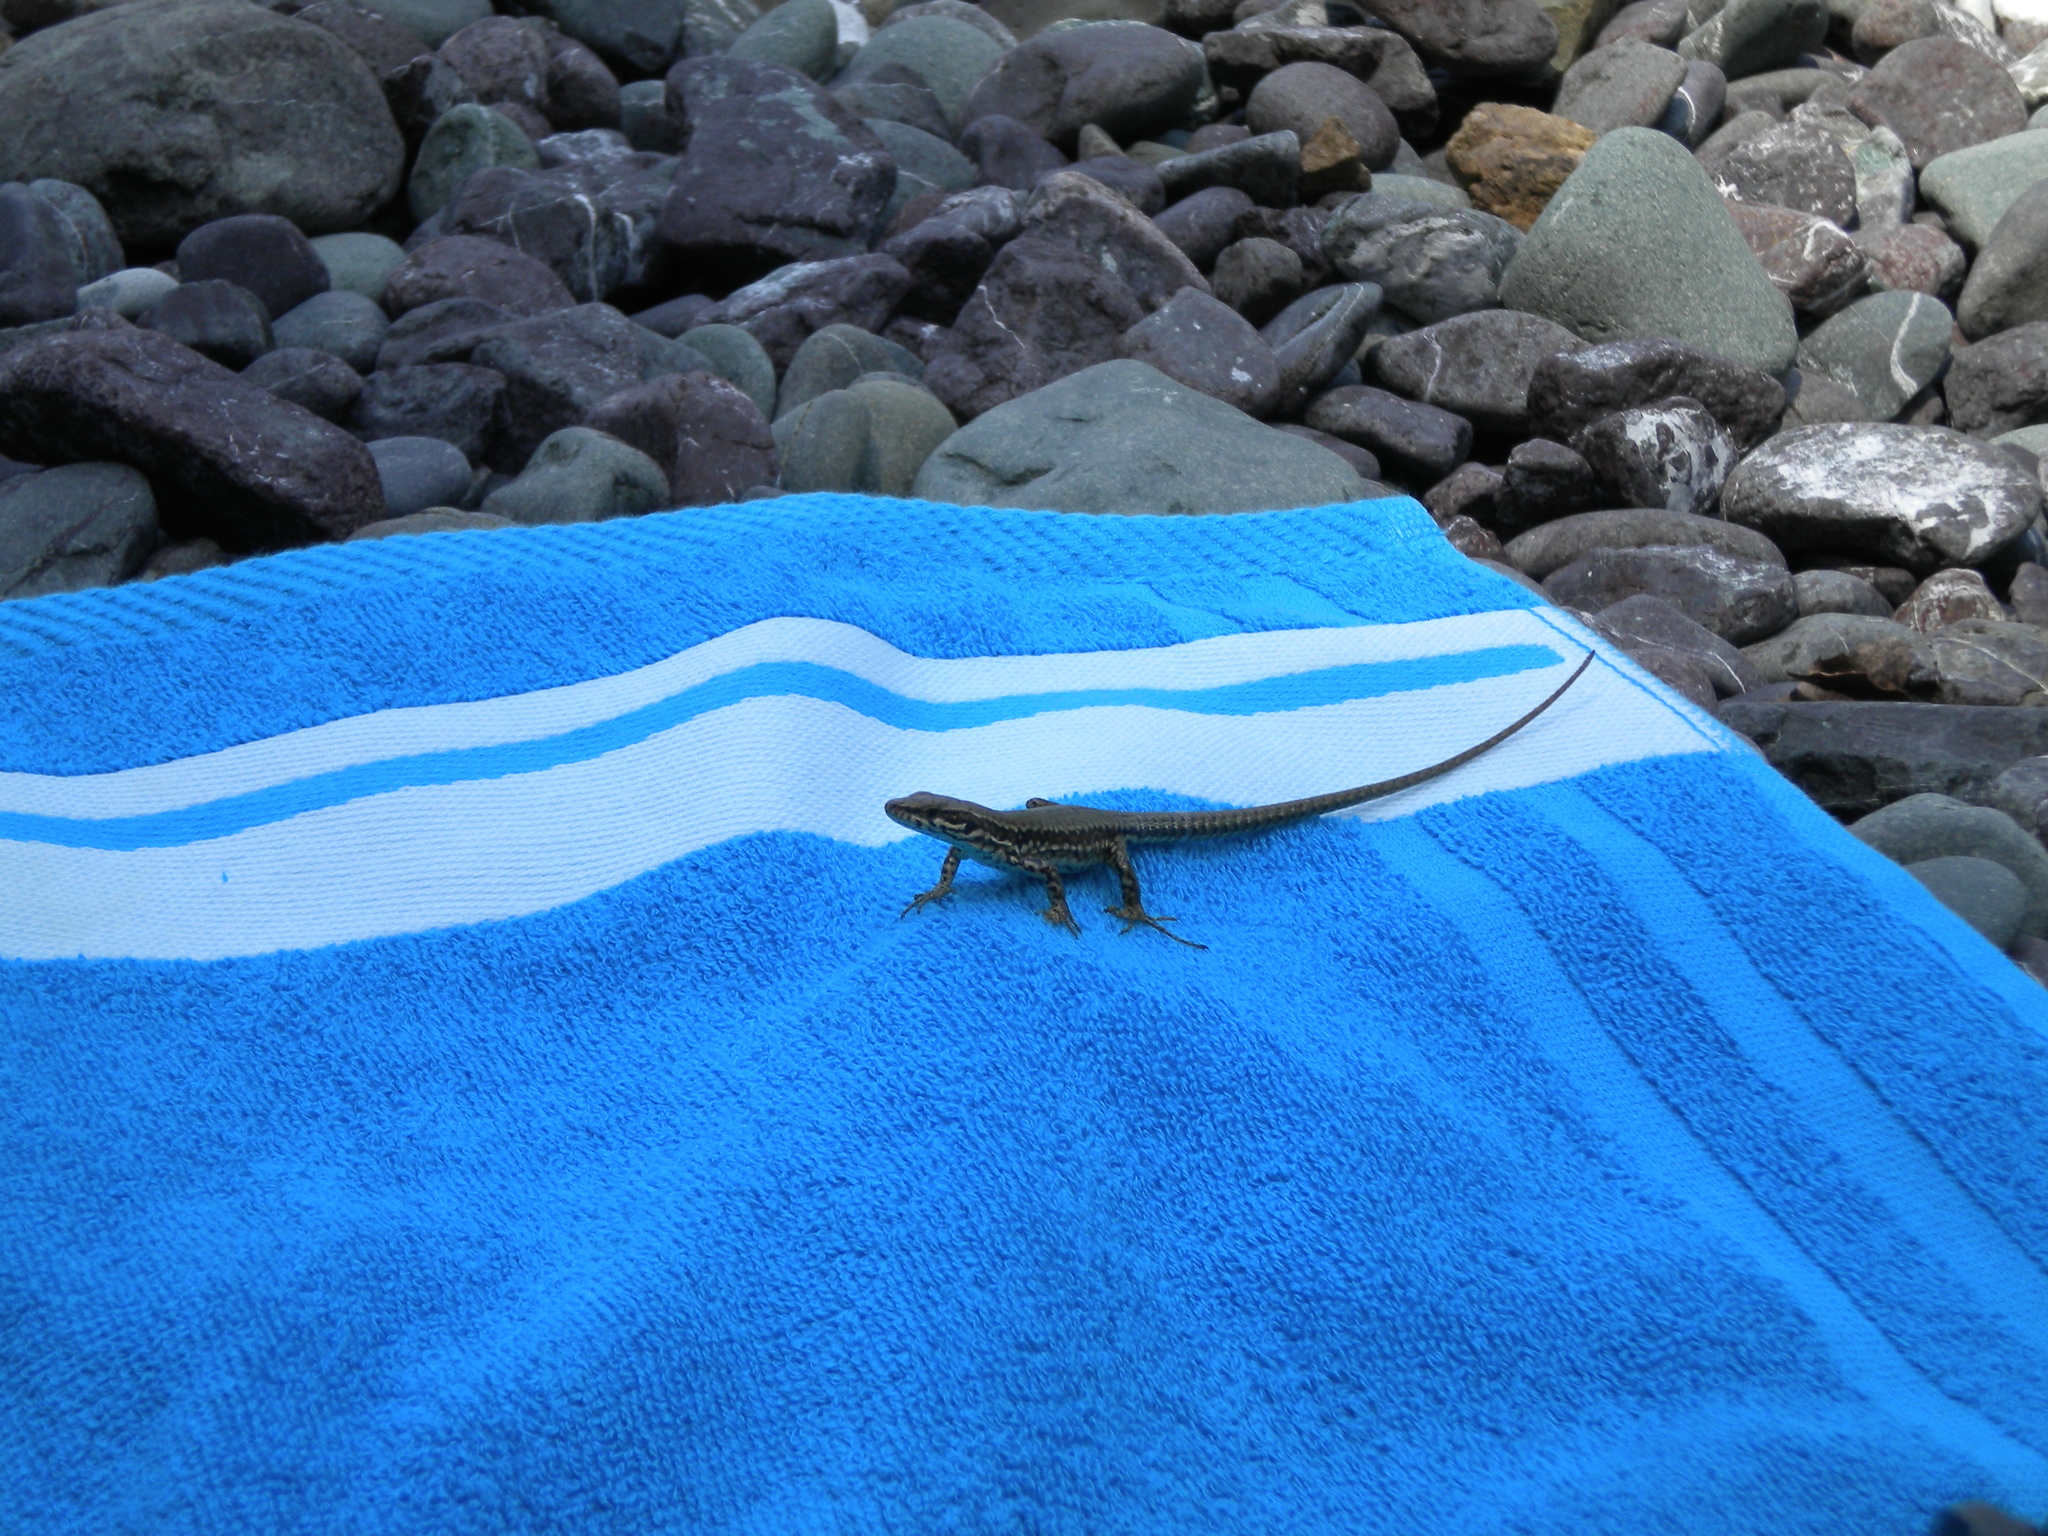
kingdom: Animalia
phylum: Chordata
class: Squamata
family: Lacertidae
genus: Podarcis
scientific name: Podarcis muralis
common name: Common wall lizard
